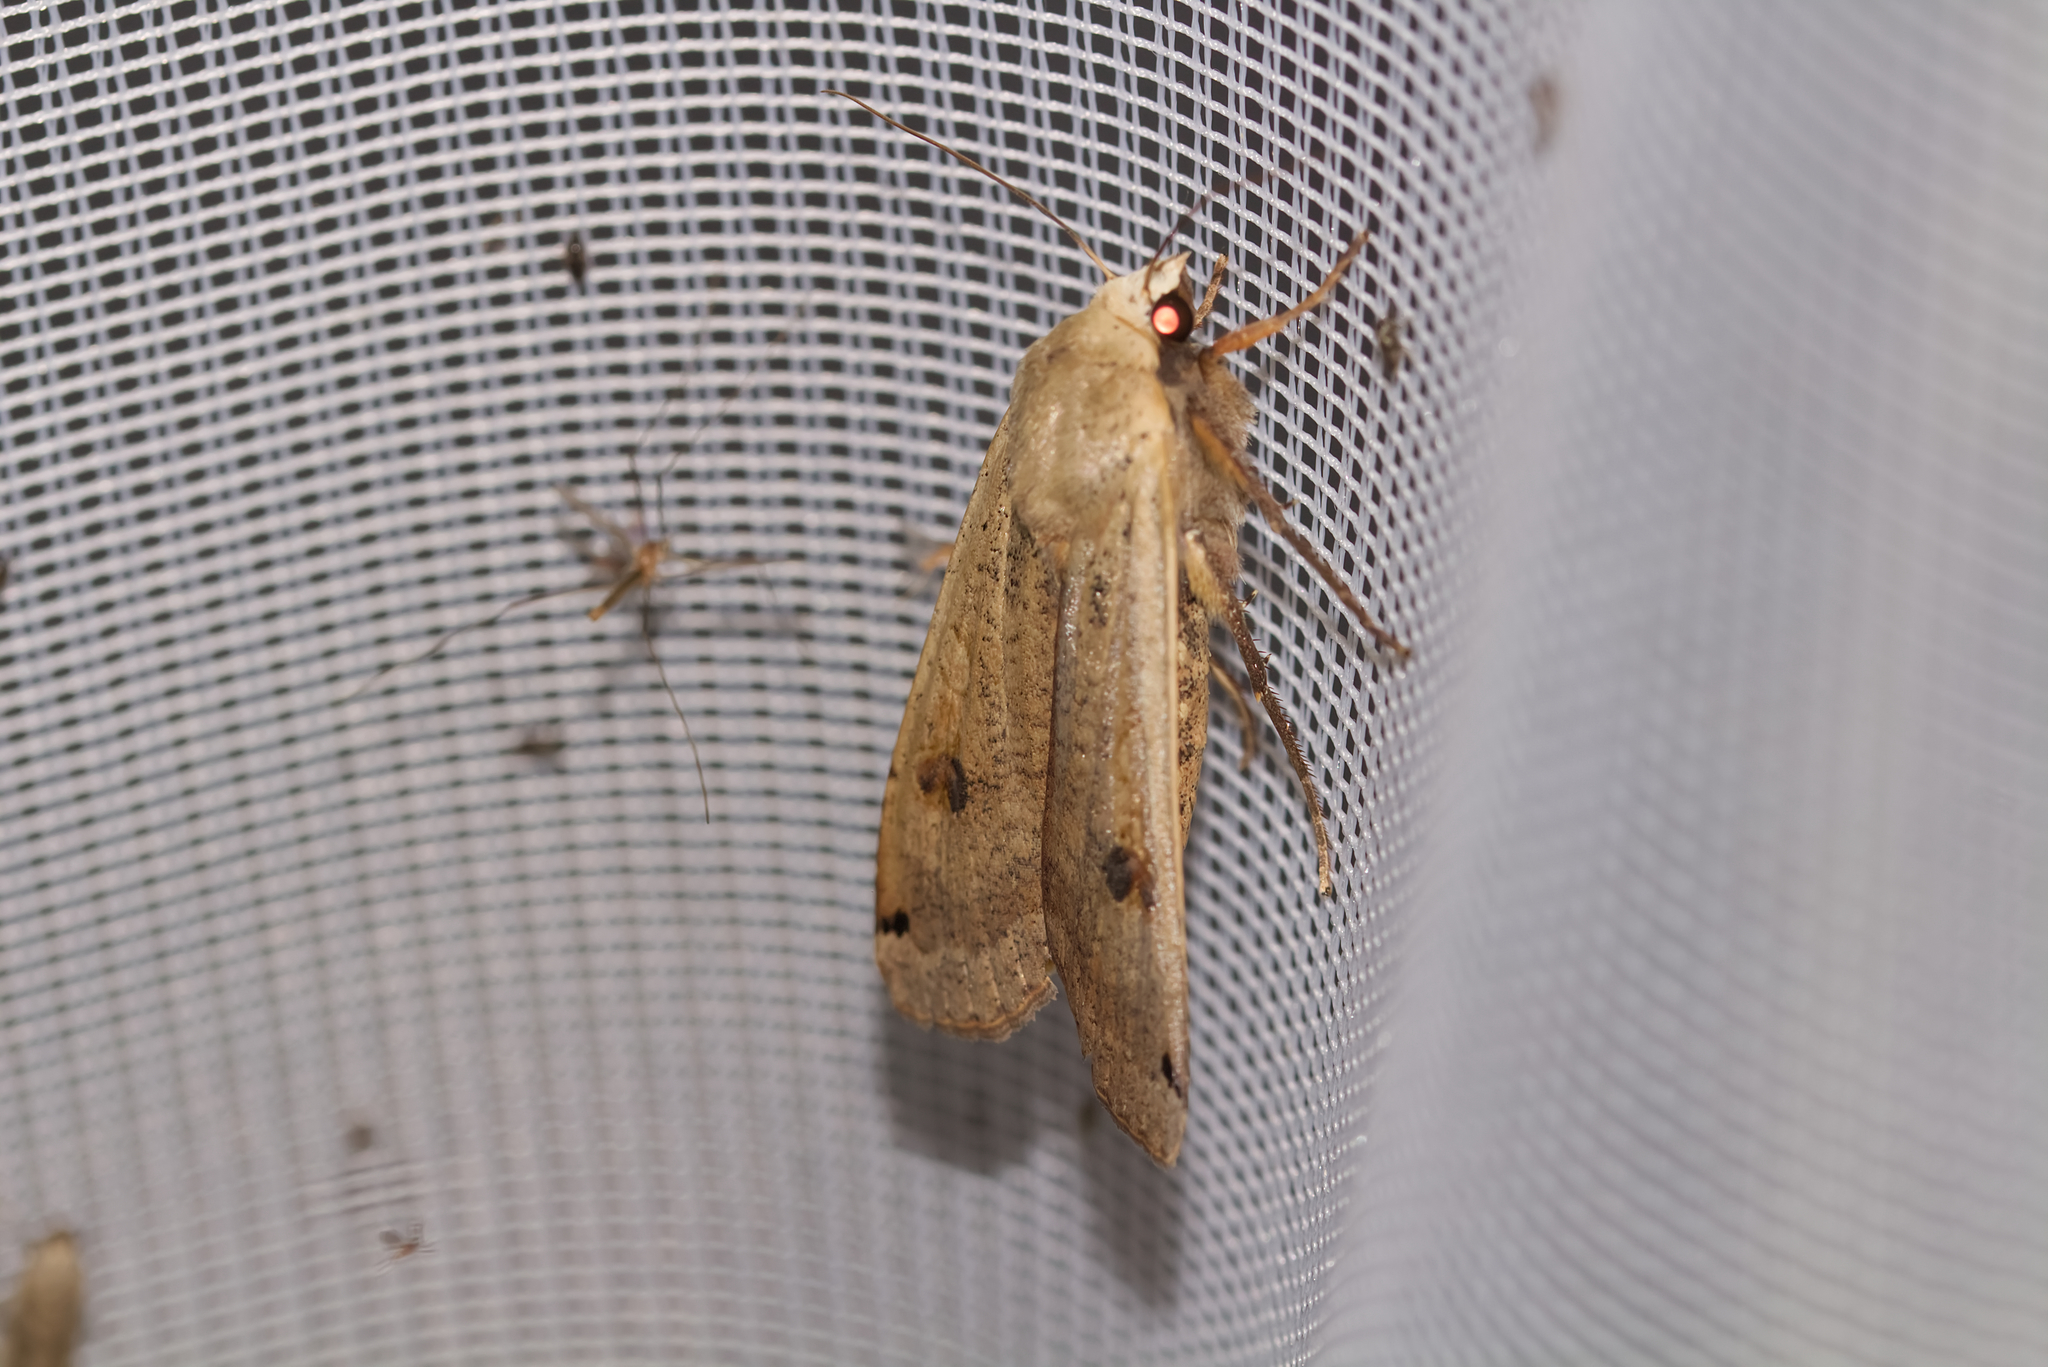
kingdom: Animalia
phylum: Arthropoda
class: Insecta
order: Lepidoptera
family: Noctuidae
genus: Noctua
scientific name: Noctua pronuba
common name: Large yellow underwing
